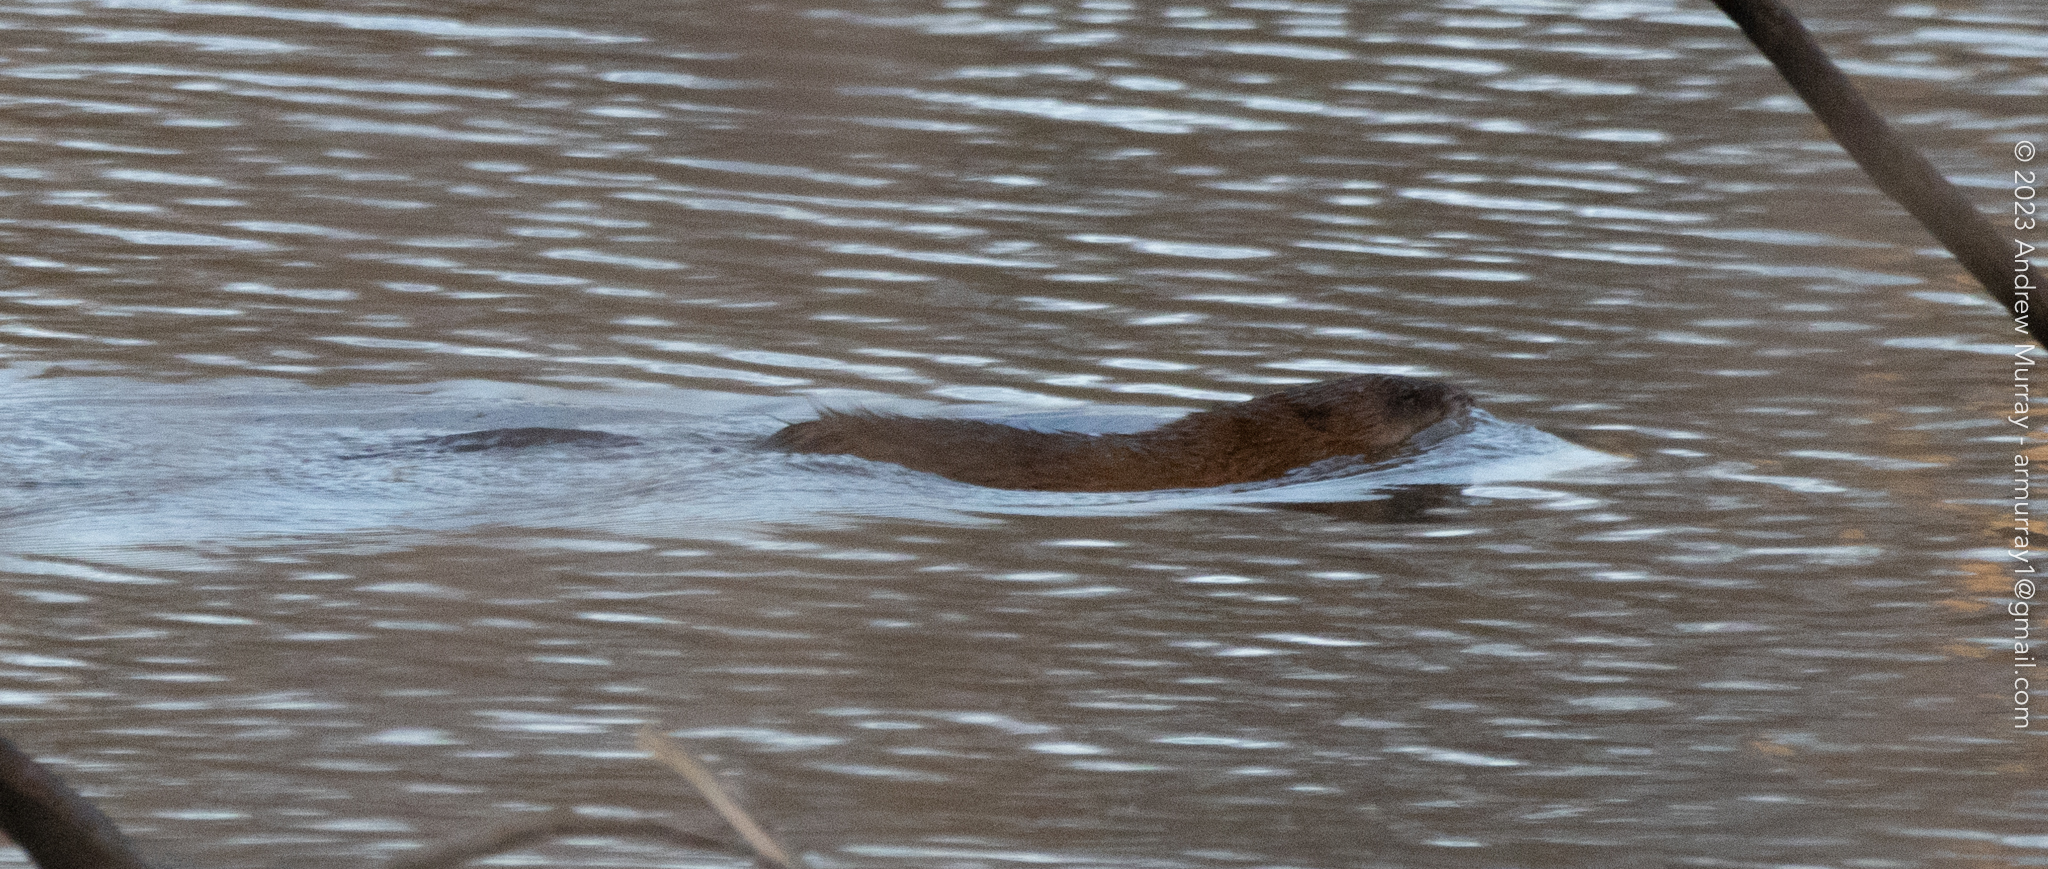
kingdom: Animalia
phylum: Chordata
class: Mammalia
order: Rodentia
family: Cricetidae
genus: Ondatra
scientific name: Ondatra zibethicus
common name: Muskrat
